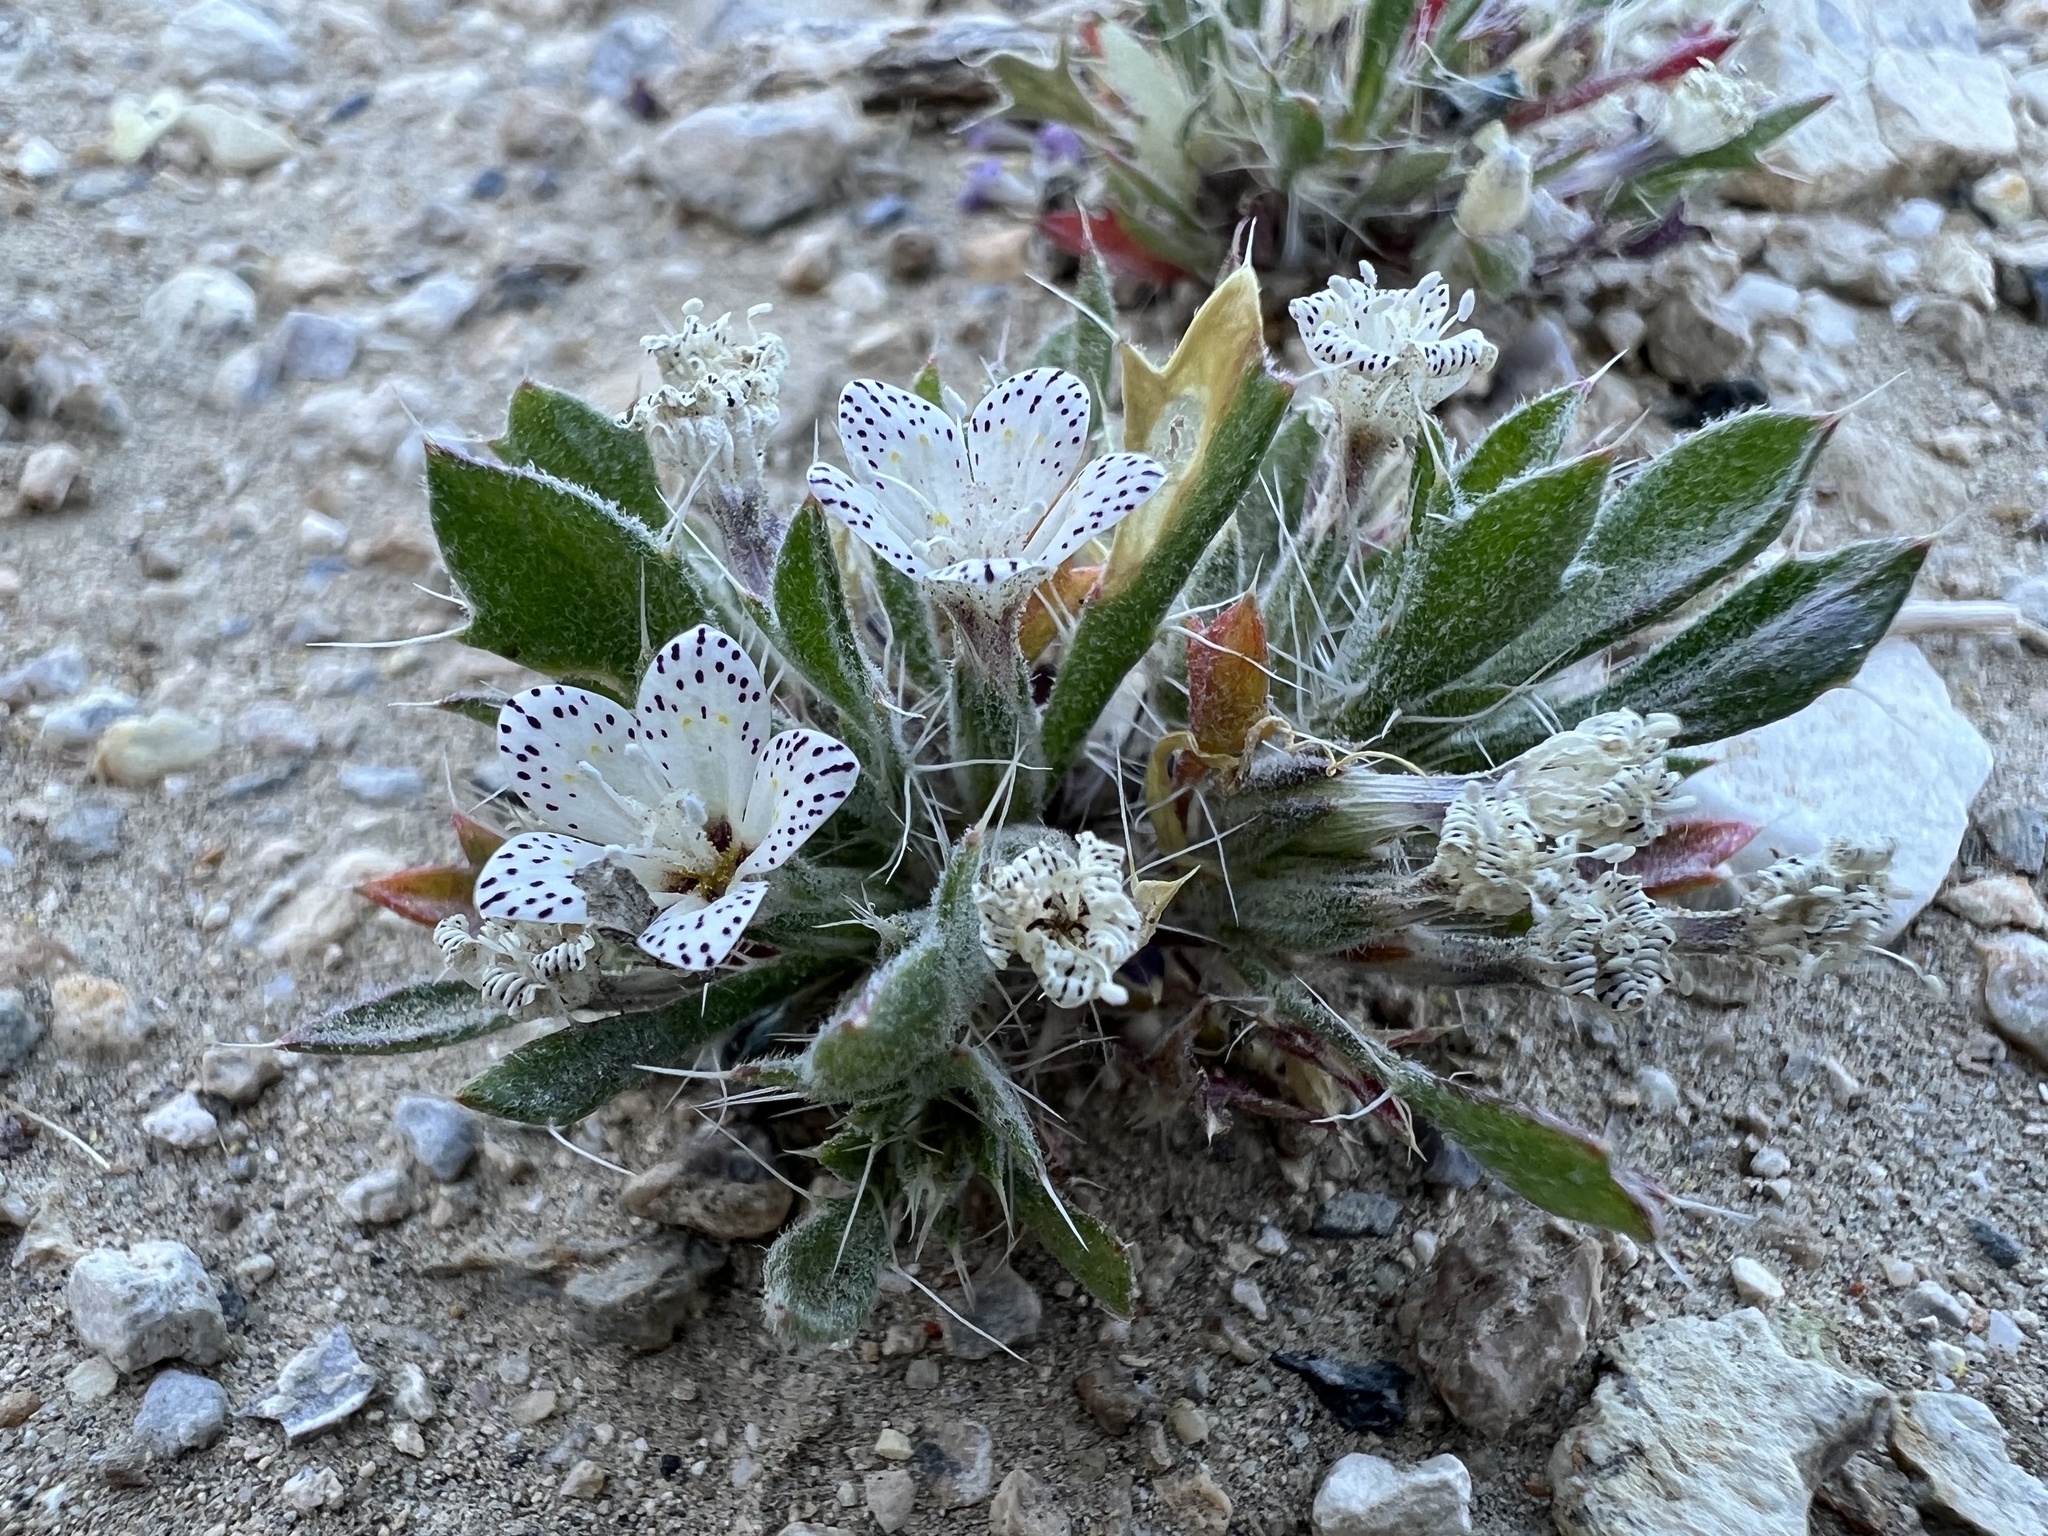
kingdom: Plantae
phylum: Tracheophyta
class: Magnoliopsida
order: Ericales
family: Polemoniaceae
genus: Langloisia
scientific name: Langloisia setosissima
